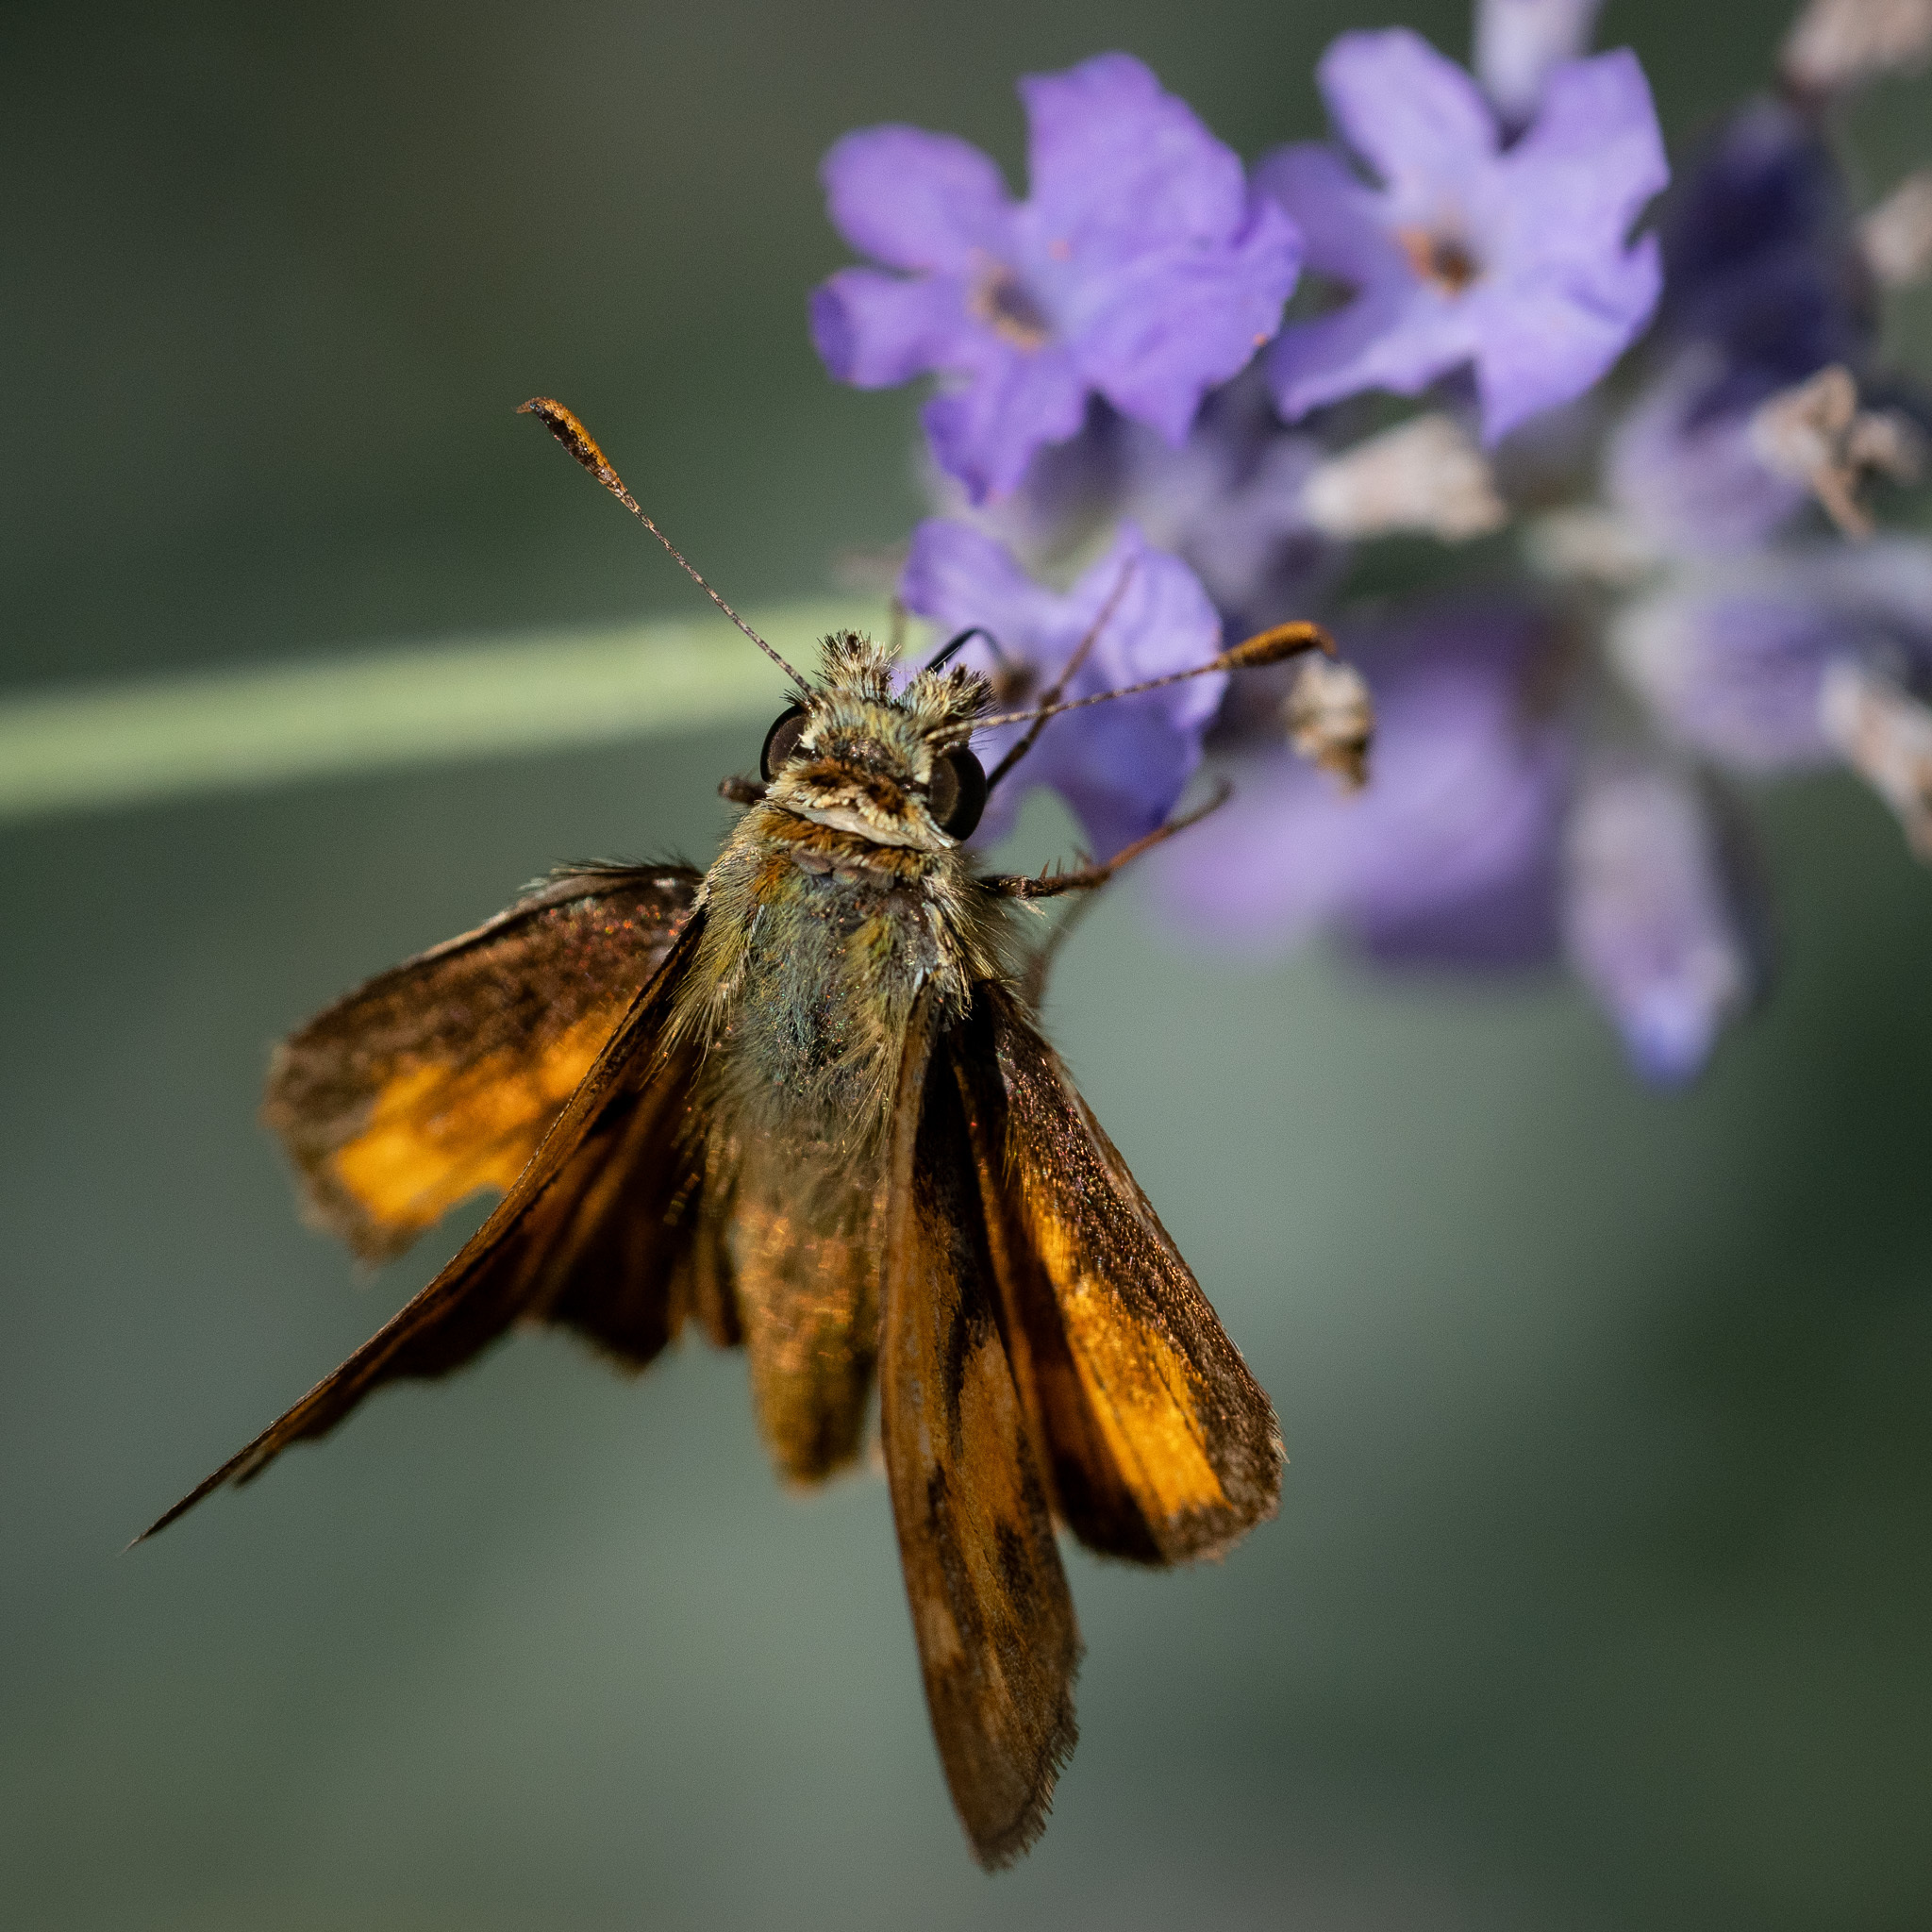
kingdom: Animalia
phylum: Arthropoda
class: Insecta
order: Lepidoptera
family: Hesperiidae
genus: Ochlodes
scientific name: Ochlodes sylvanoides
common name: Woodland skipper
